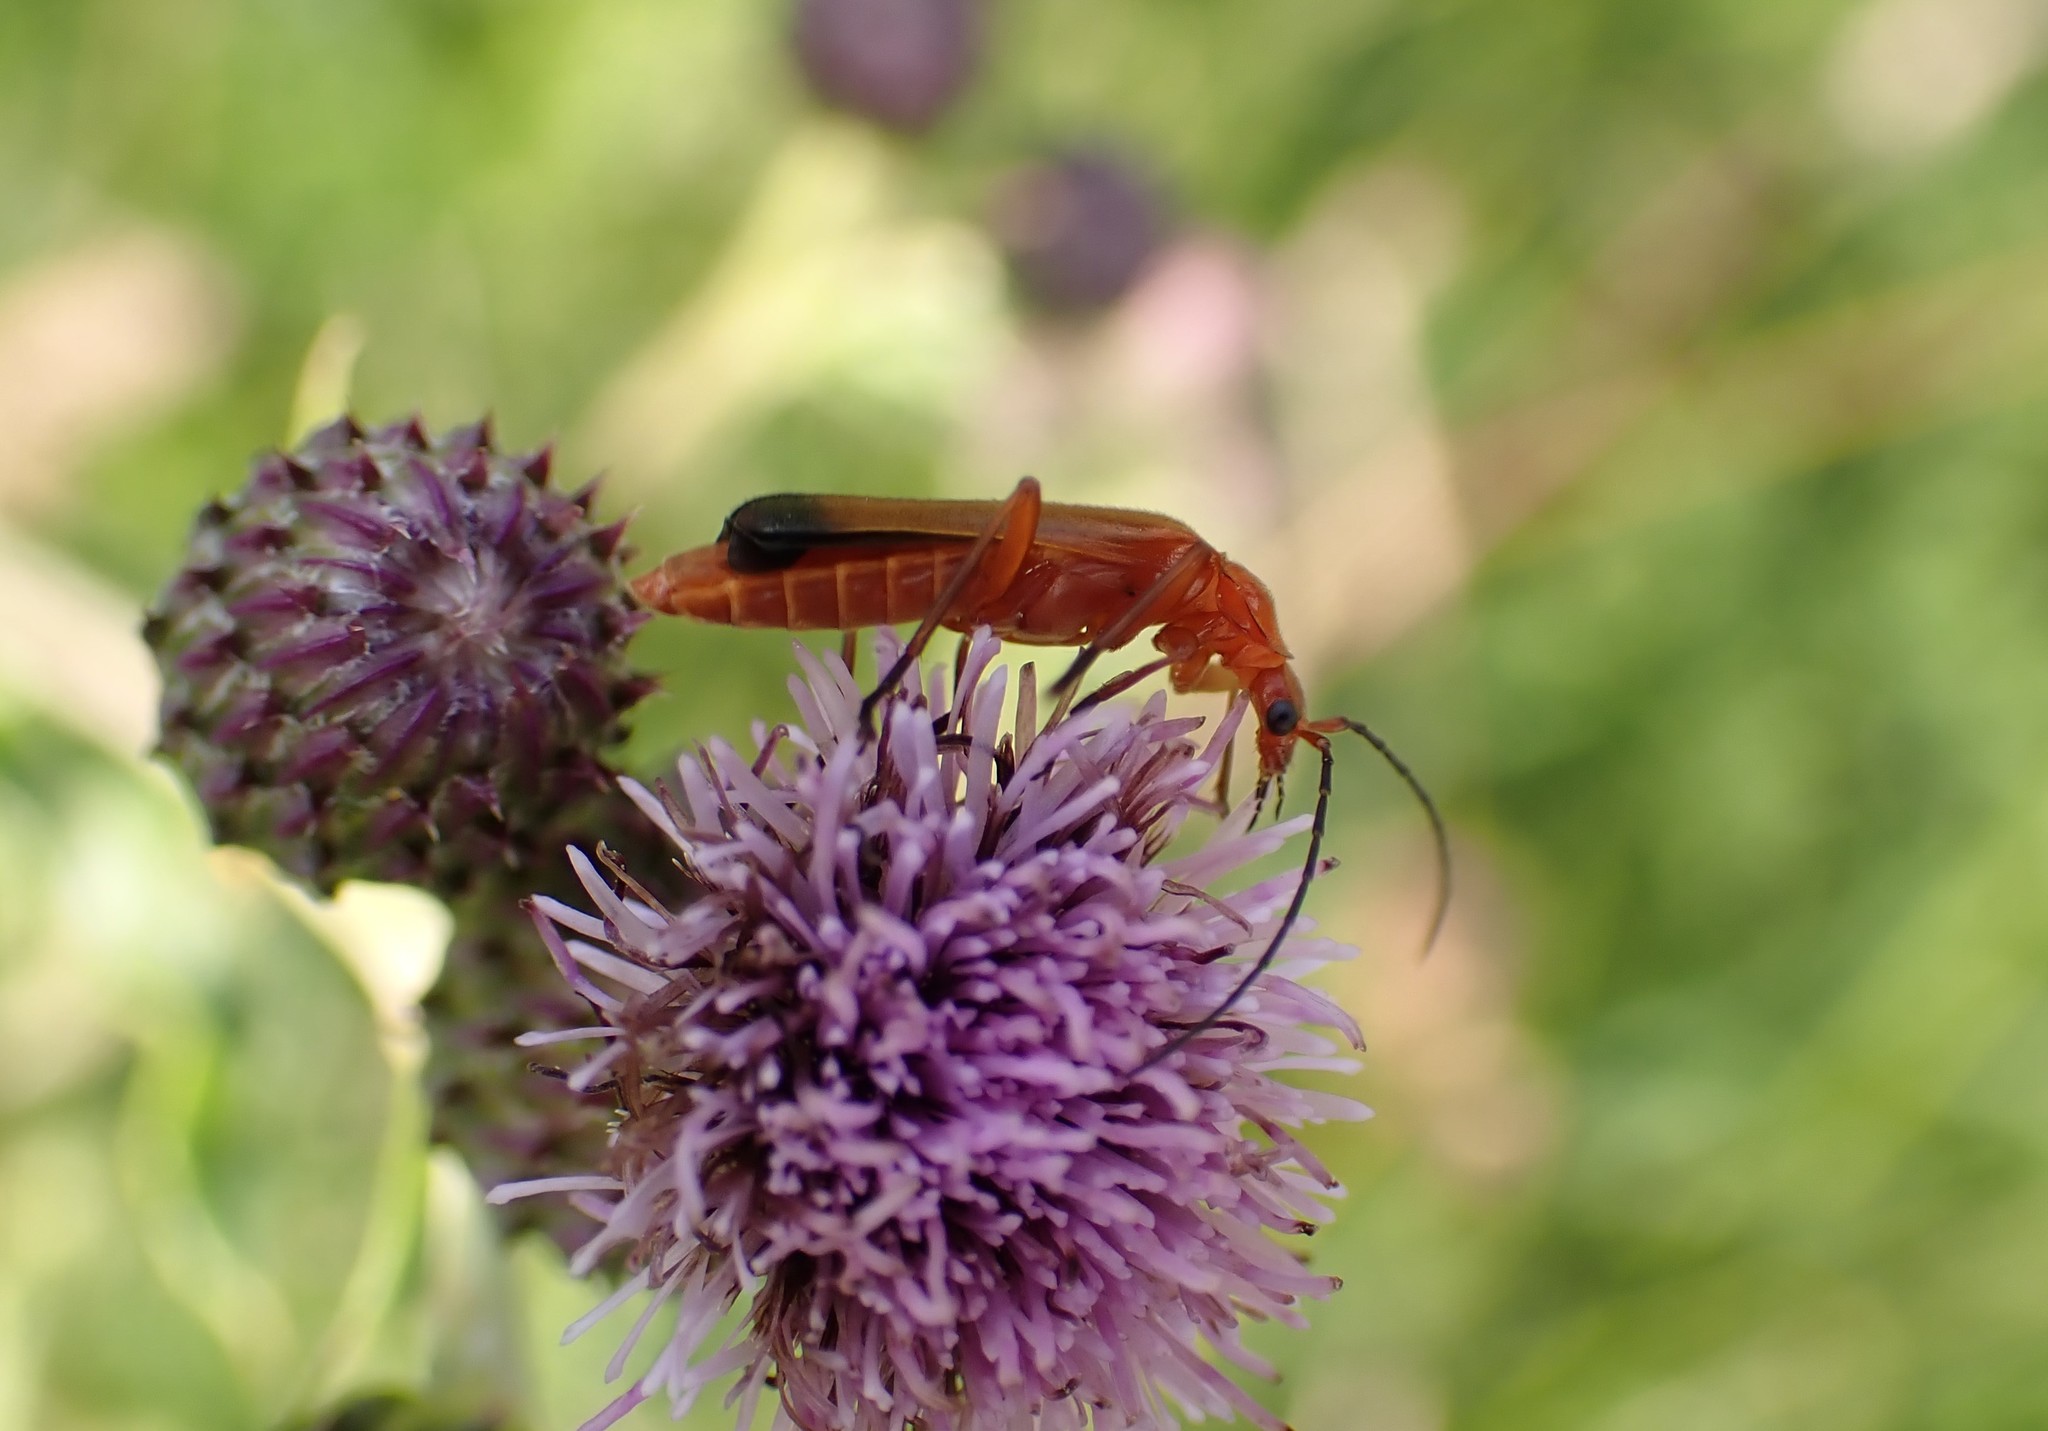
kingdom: Animalia
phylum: Arthropoda
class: Insecta
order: Coleoptera
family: Cantharidae
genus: Rhagonycha
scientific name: Rhagonycha fulva
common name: Common red soldier beetle
